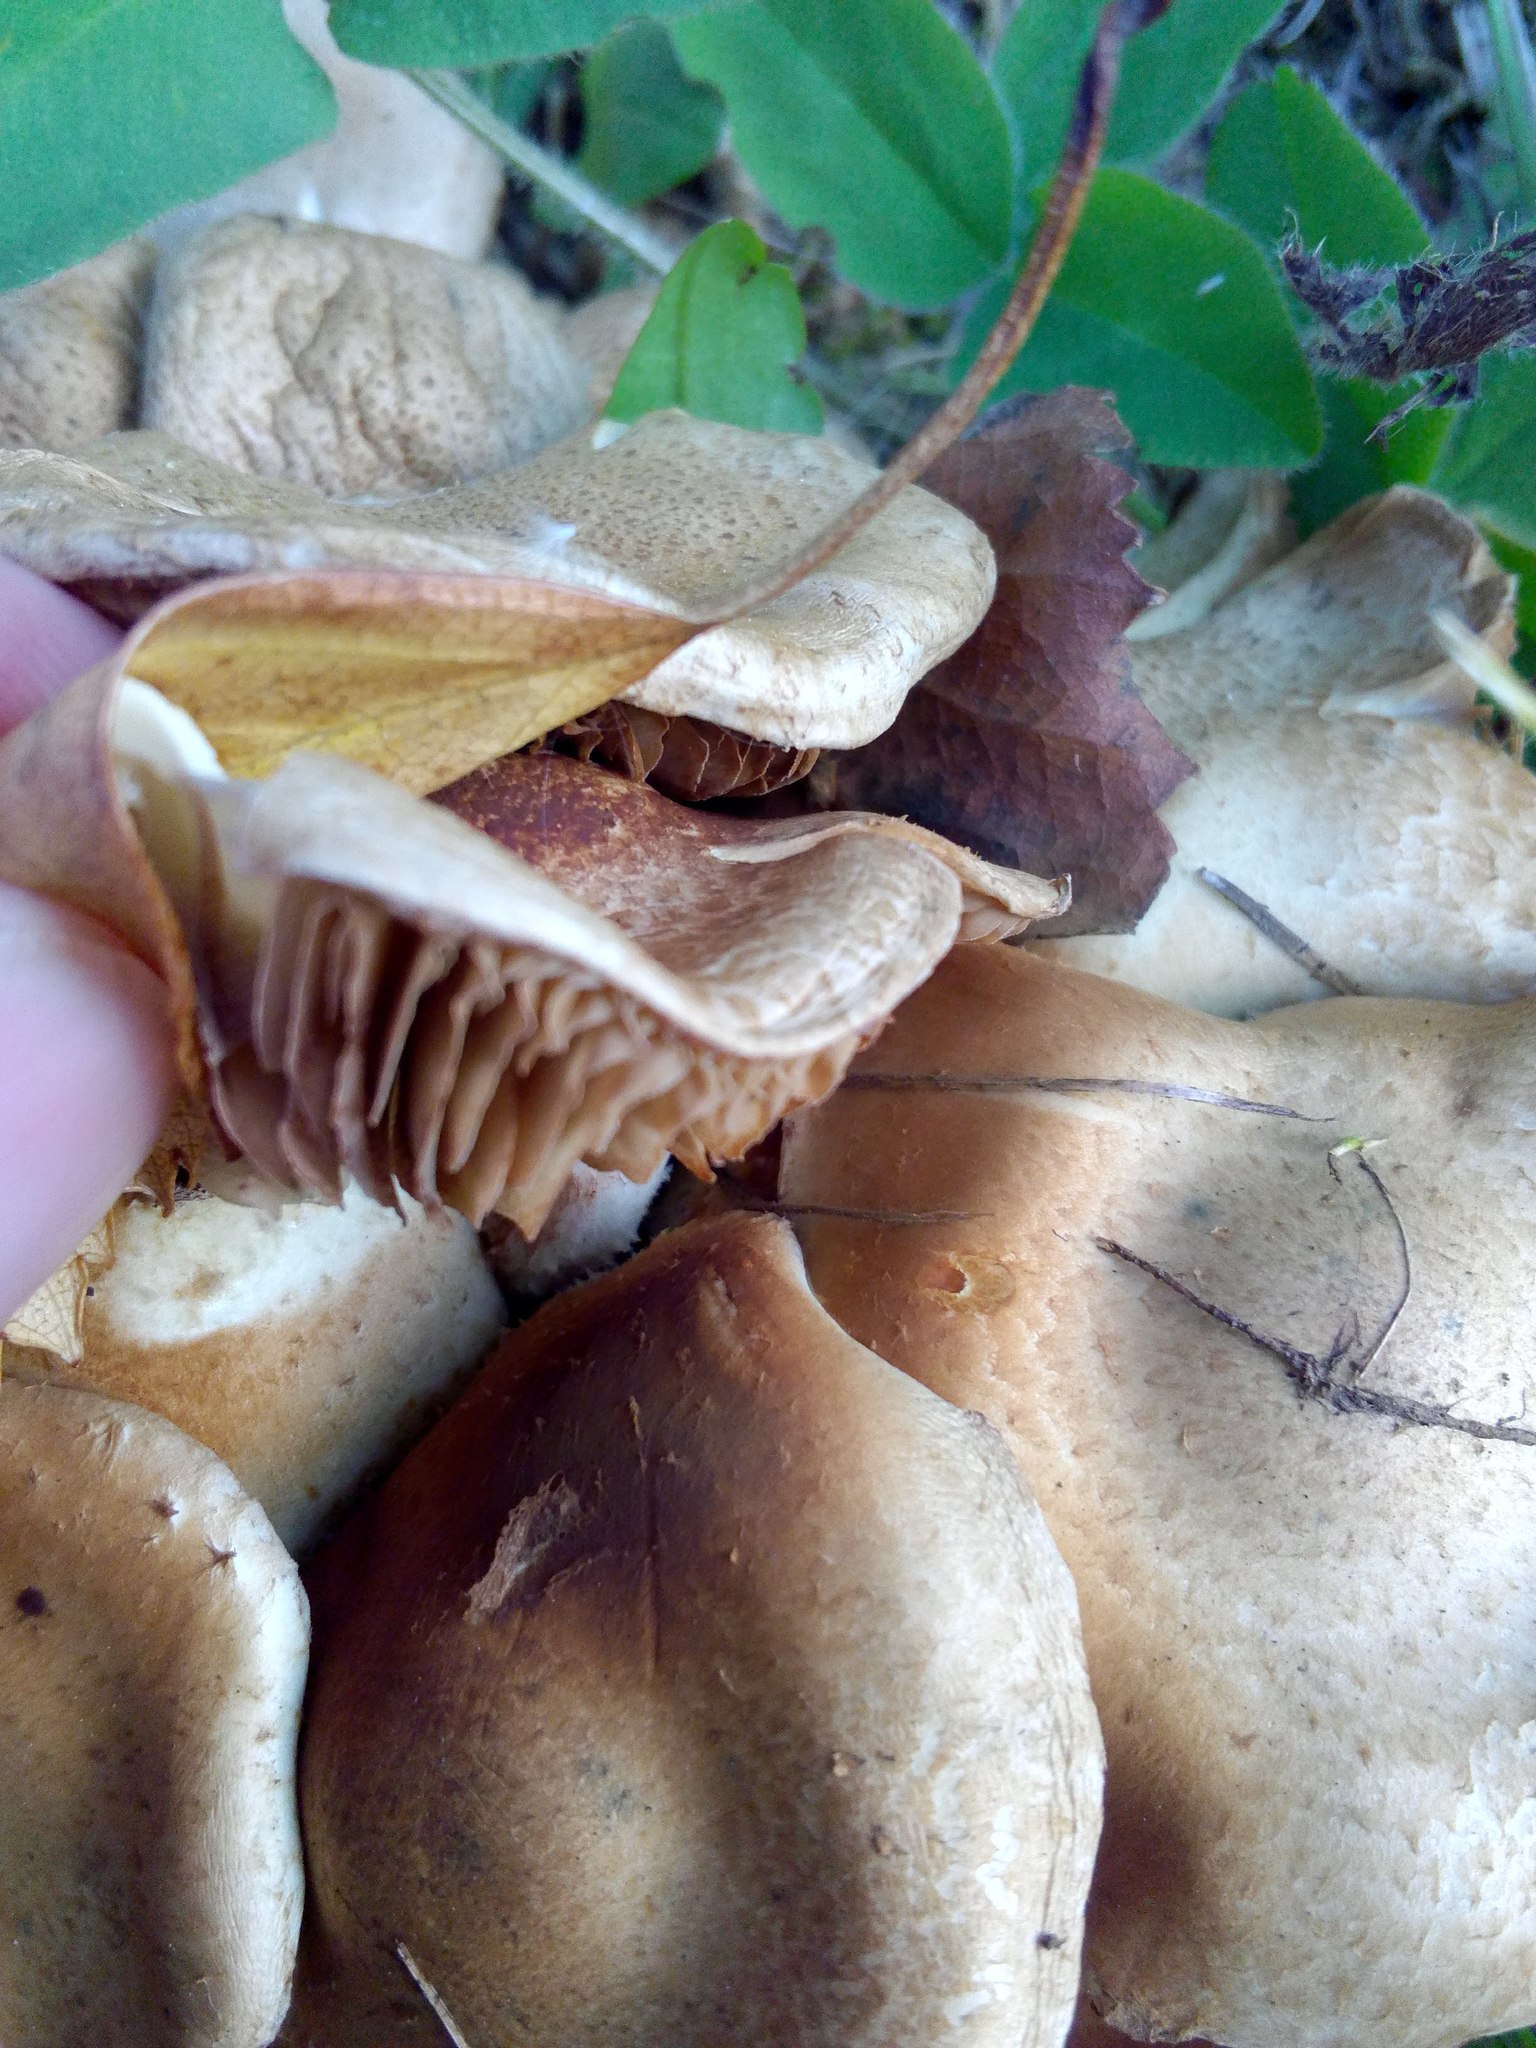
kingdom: Fungi
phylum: Basidiomycota
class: Agaricomycetes
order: Agaricales
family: Strophariaceae
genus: Hypholoma
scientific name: Hypholoma capnoides
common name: Conifer tuft
